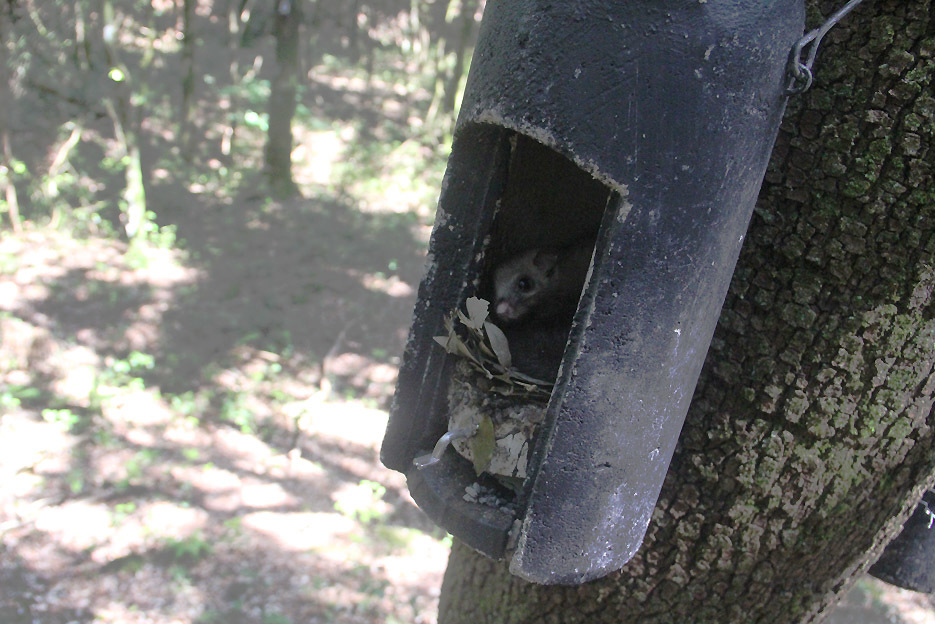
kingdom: Animalia
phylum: Chordata
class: Mammalia
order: Rodentia
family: Gliridae
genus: Glis
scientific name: Glis glis
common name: Fat dormouse
